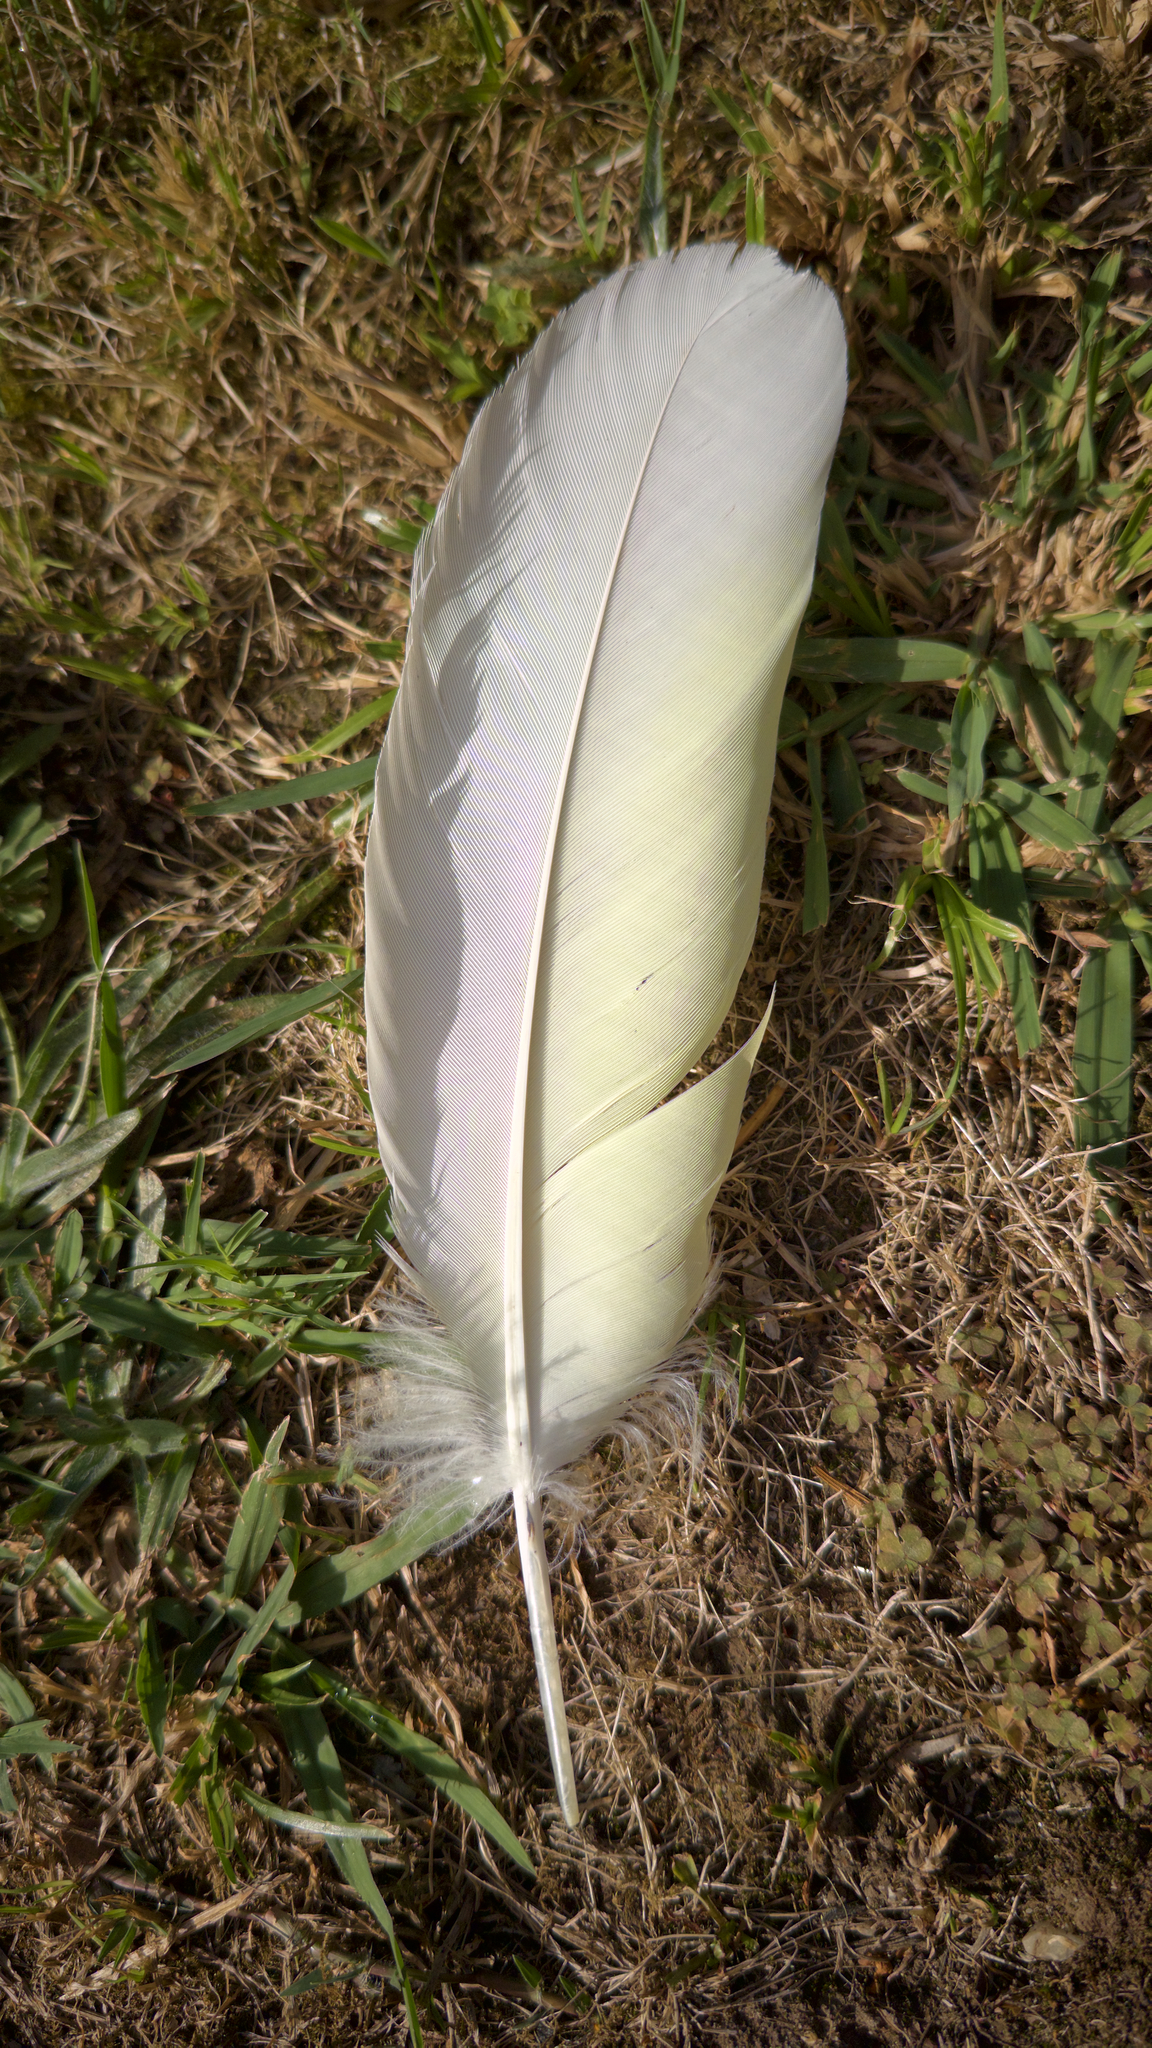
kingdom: Animalia
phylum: Chordata
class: Aves
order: Psittaciformes
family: Psittacidae
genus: Cacatua
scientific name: Cacatua galerita
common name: Sulphur-crested cockatoo
